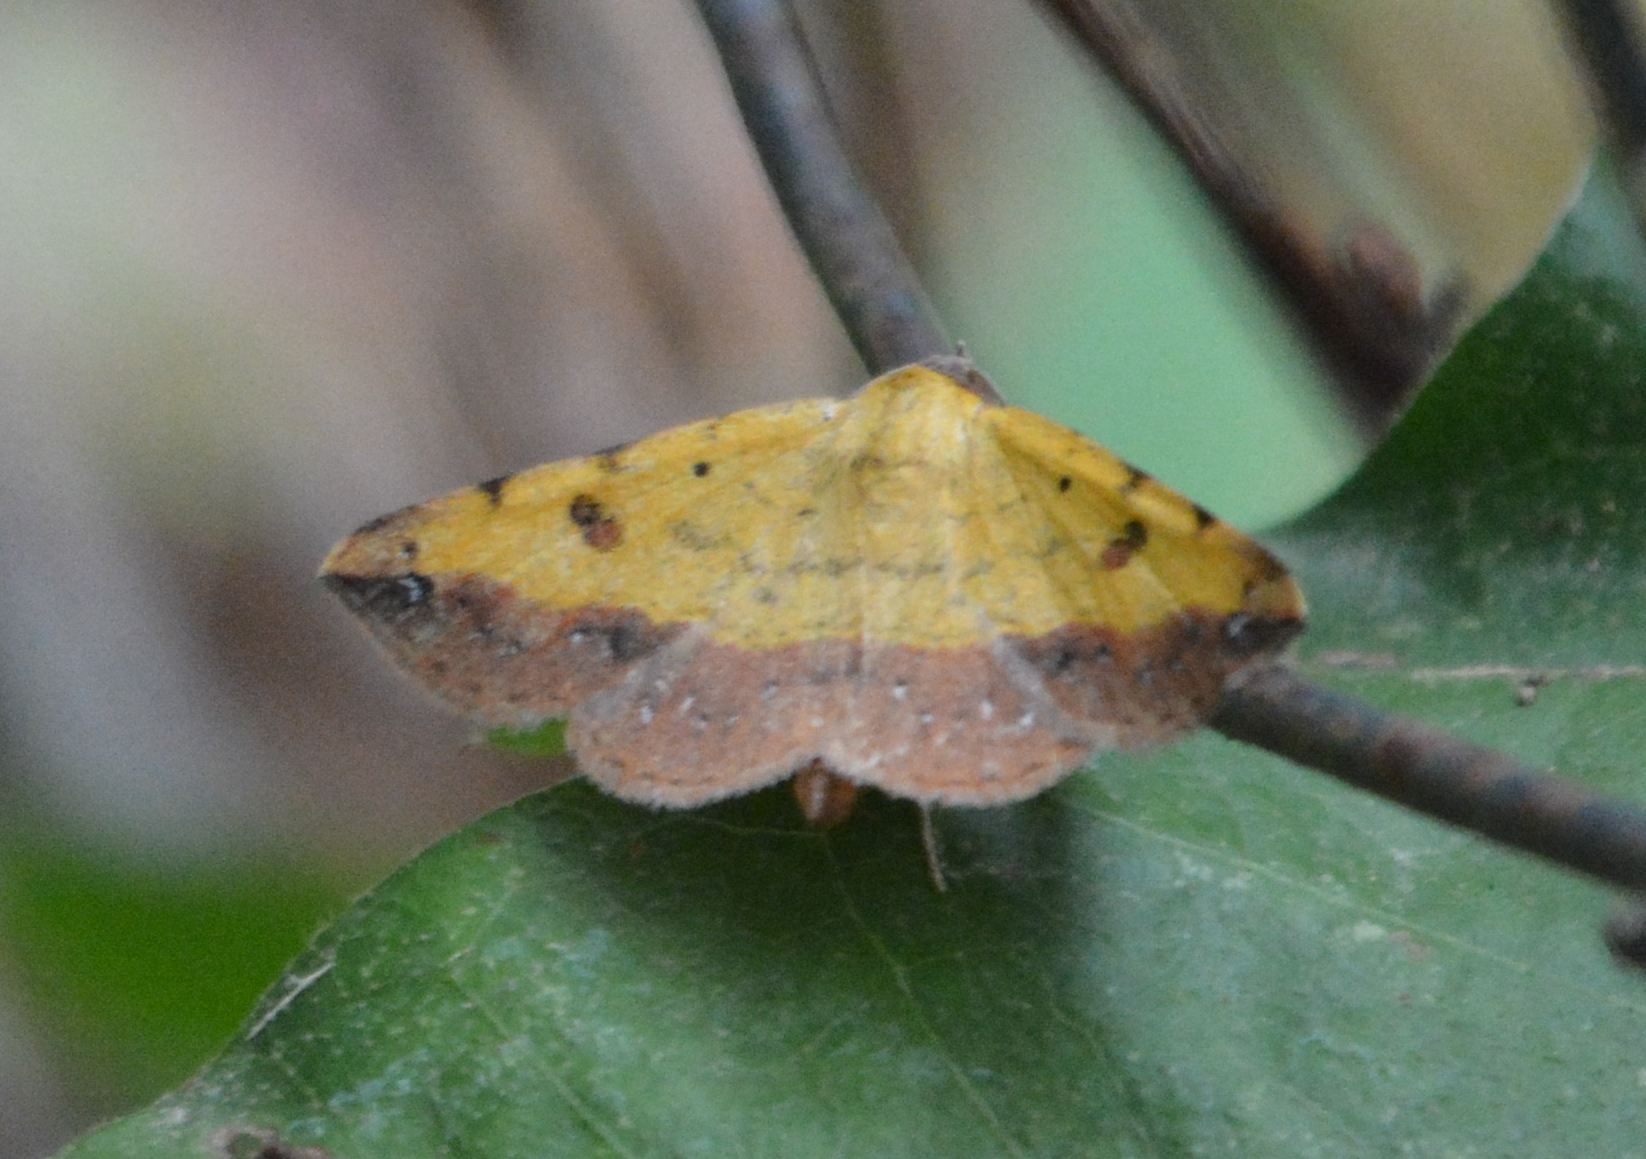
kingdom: Animalia
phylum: Arthropoda
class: Insecta
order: Lepidoptera
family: Erebidae
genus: Hemeroplanis
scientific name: Hemeroplanis scopulepes
